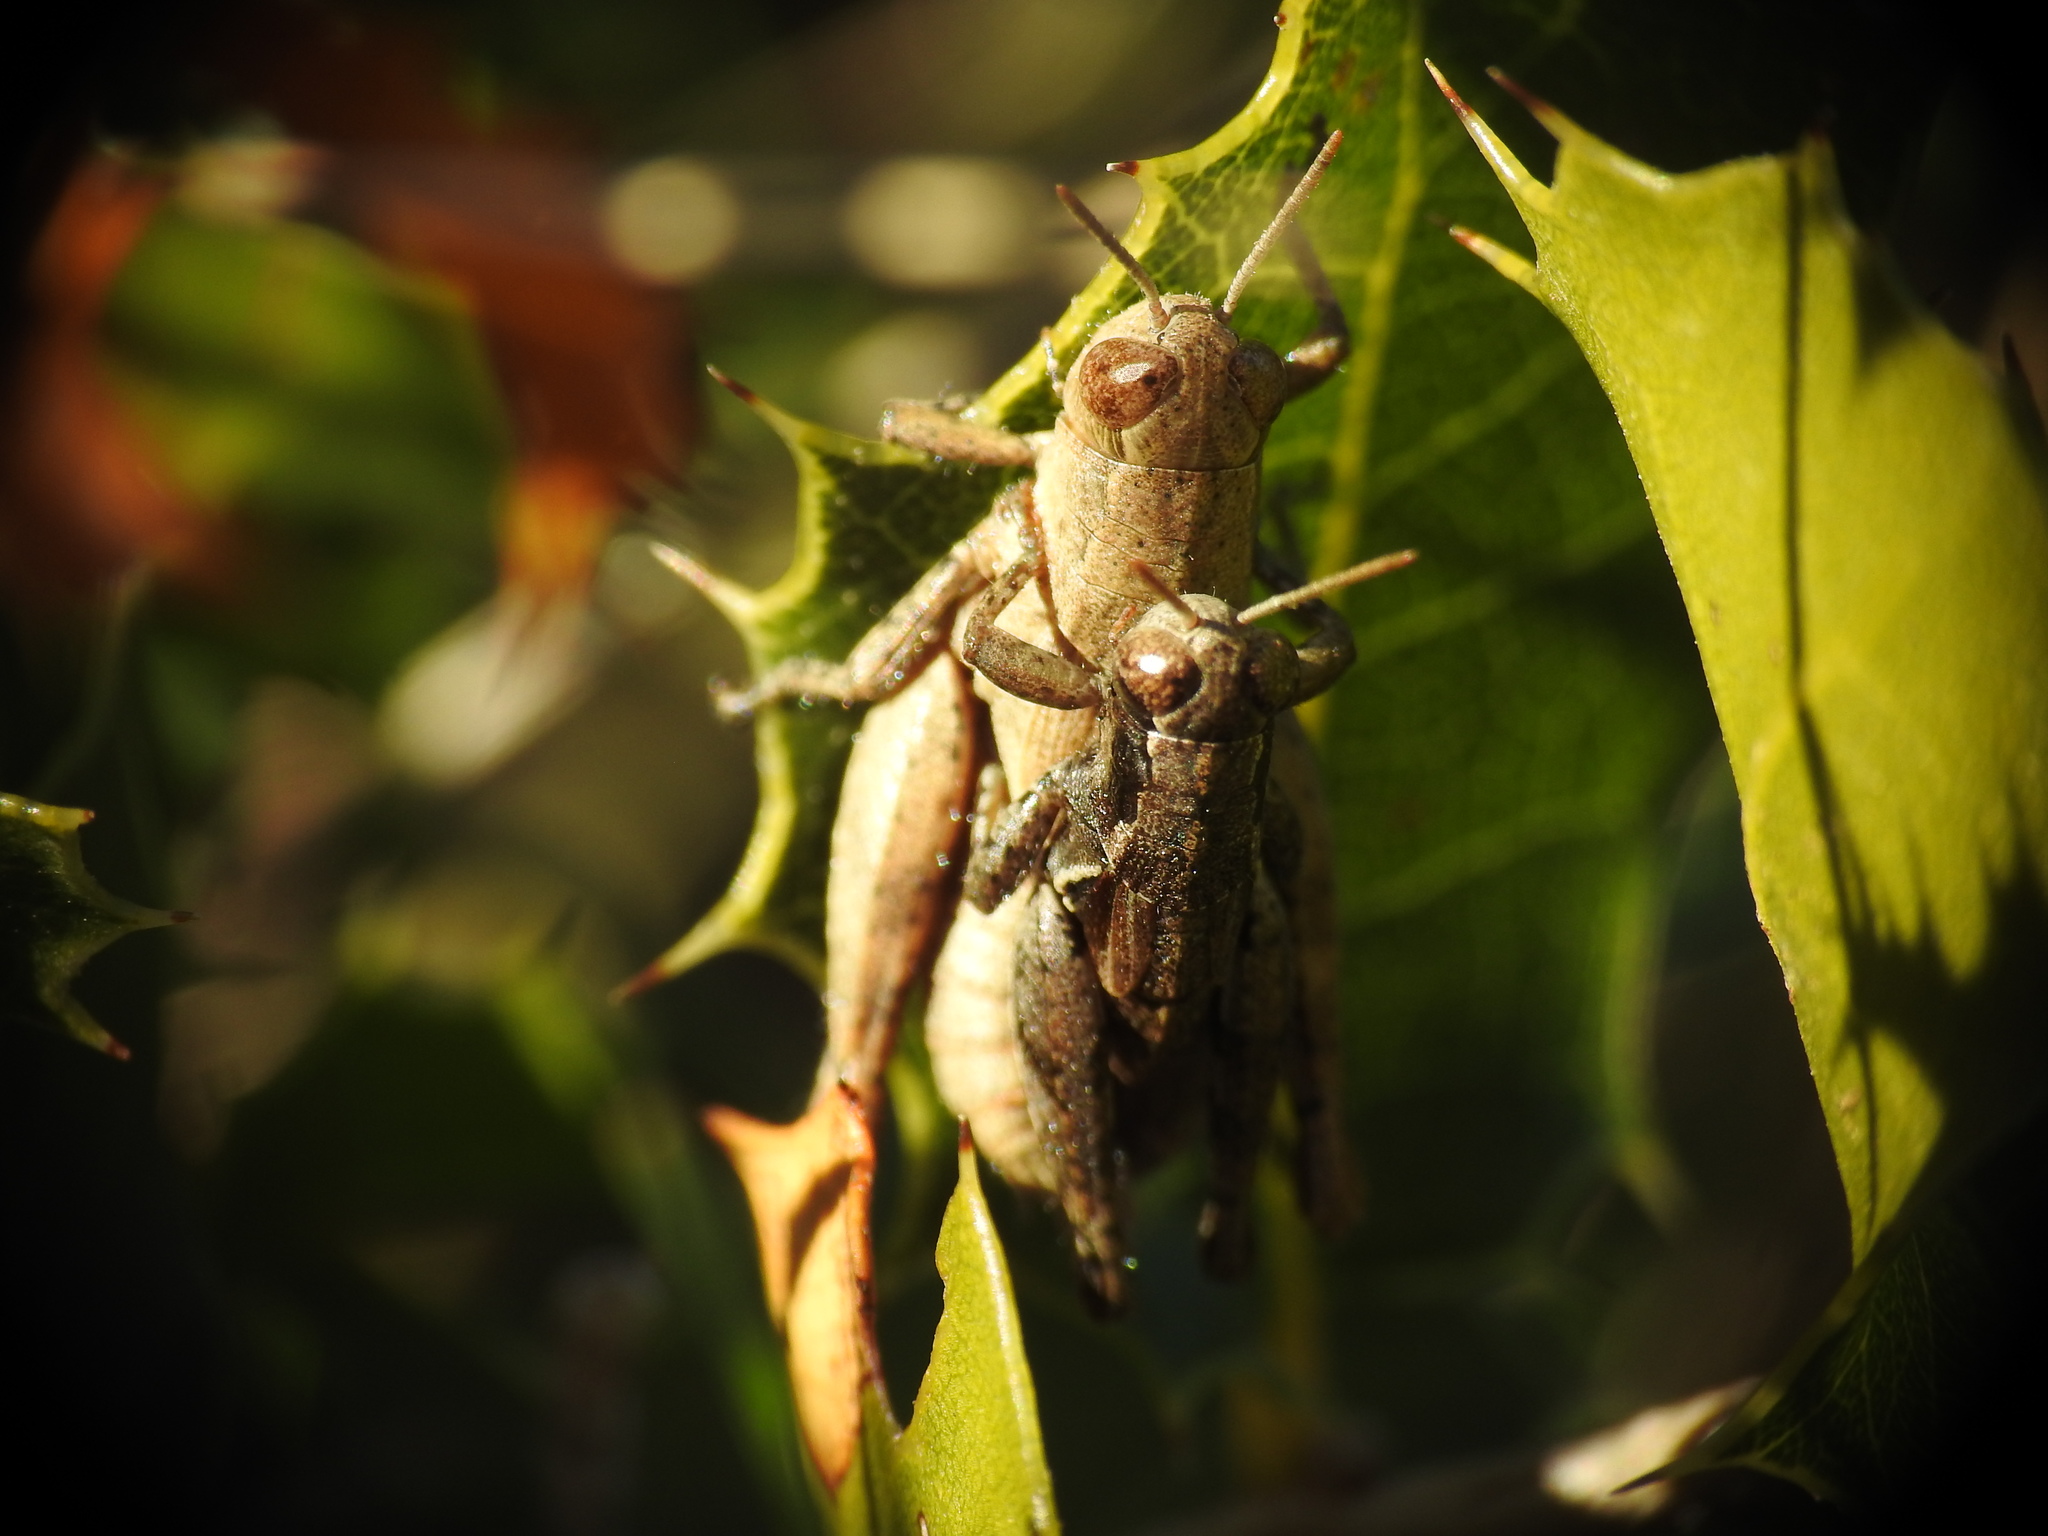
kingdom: Animalia
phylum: Arthropoda
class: Insecta
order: Orthoptera
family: Acrididae
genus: Pezotettix
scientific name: Pezotettix giornae
